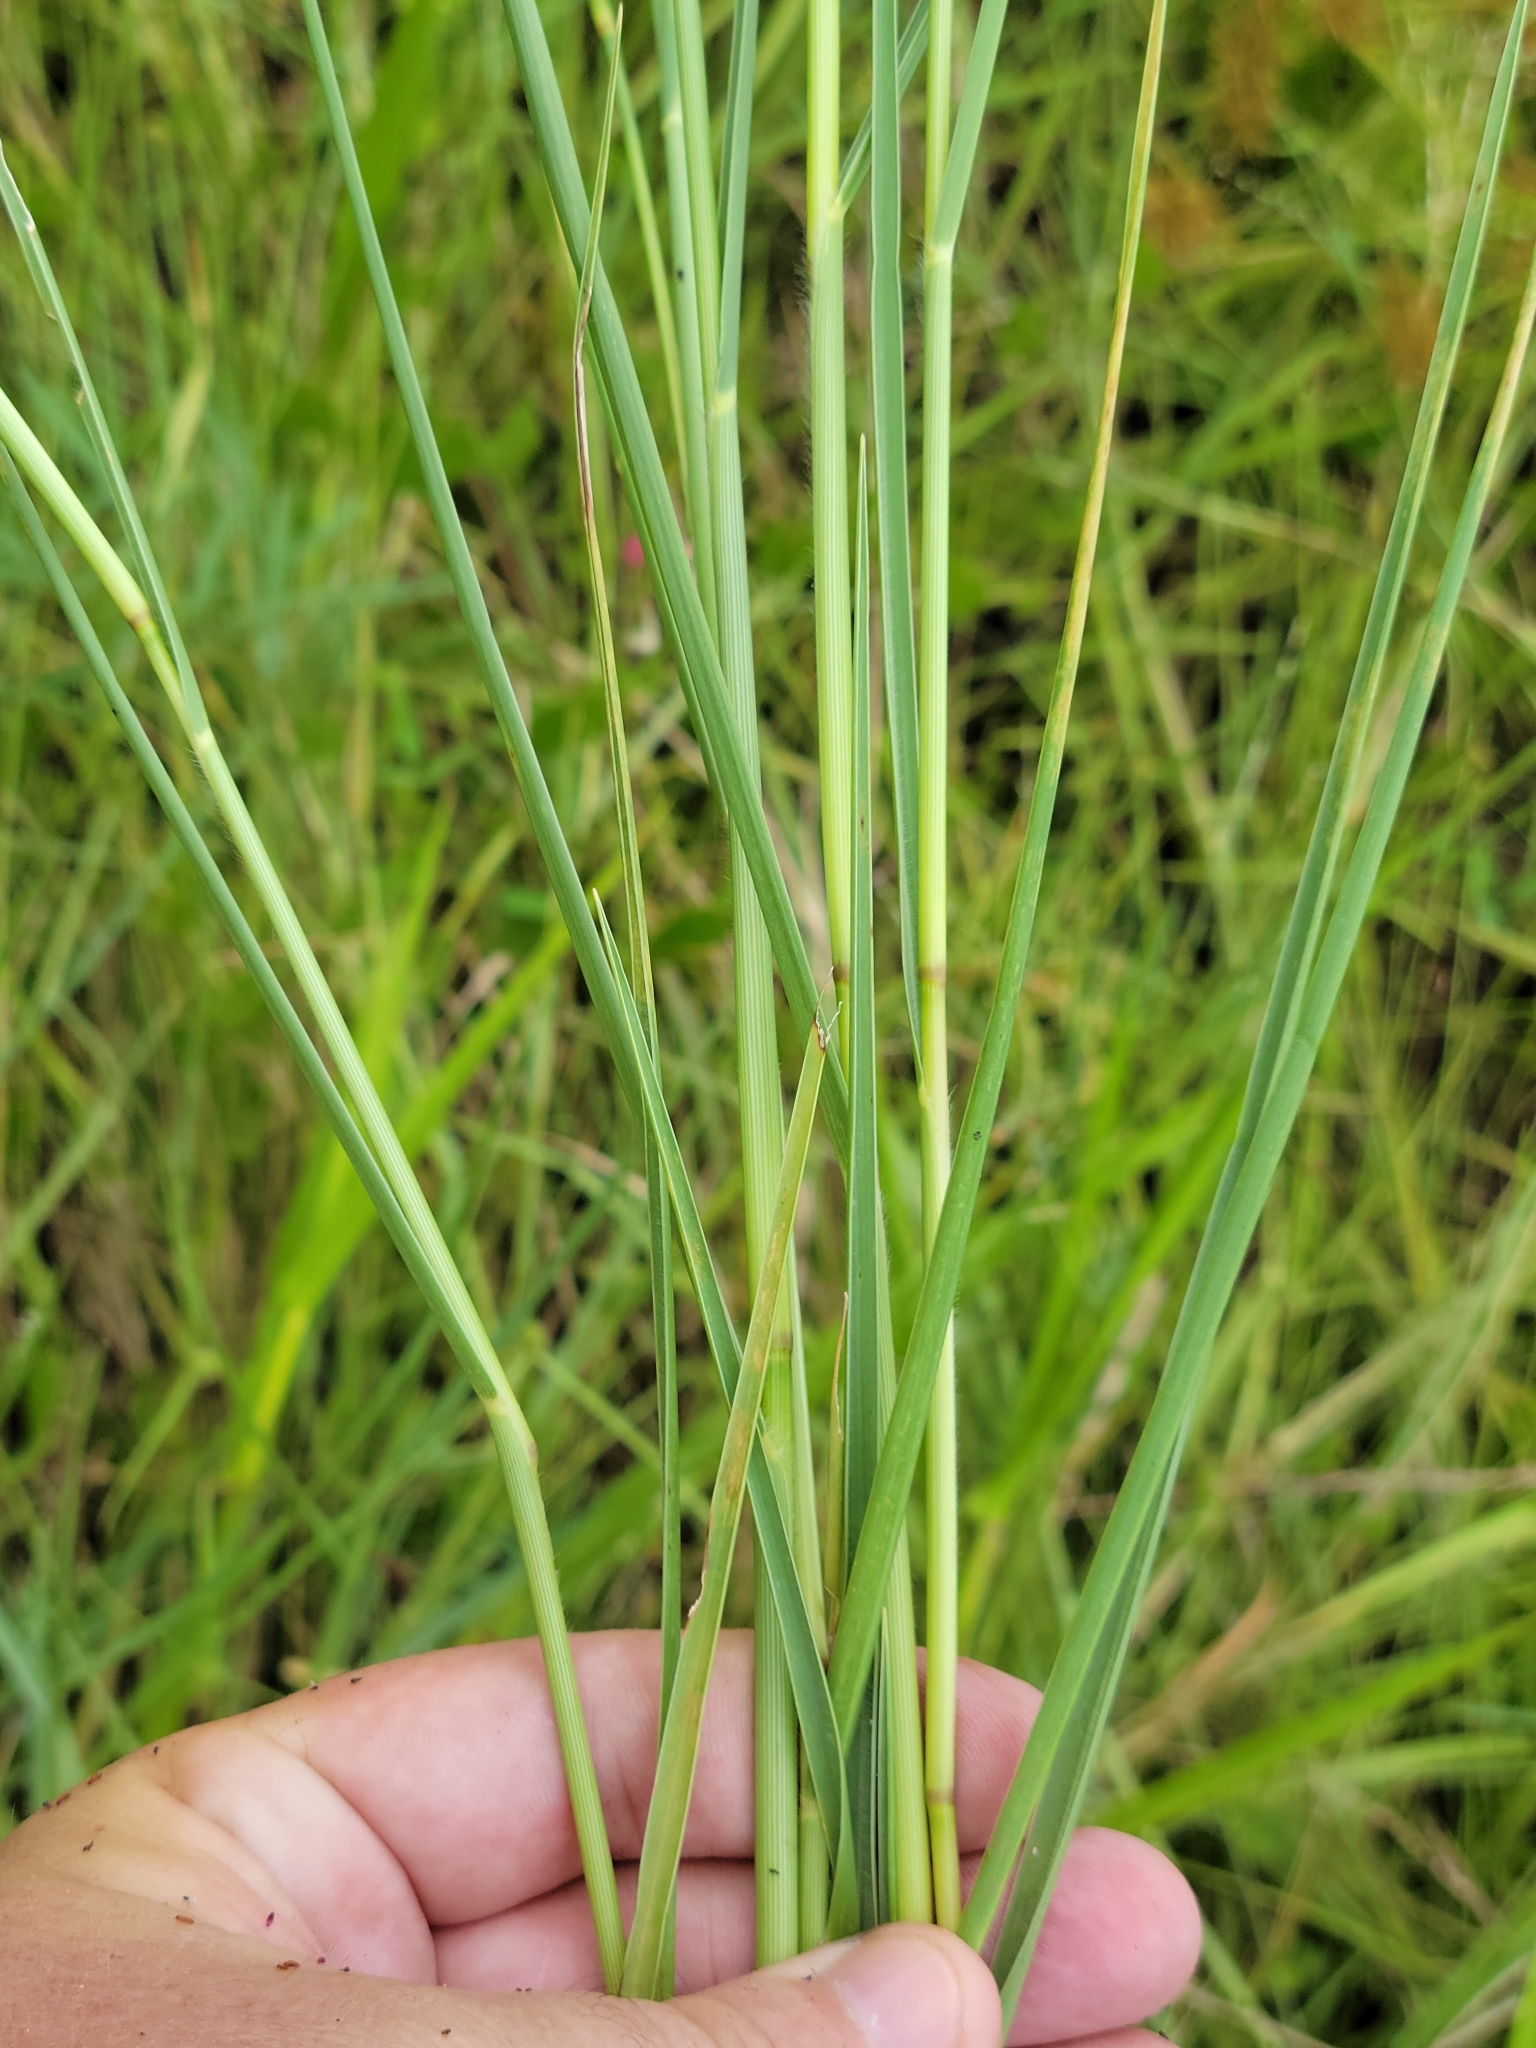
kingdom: Plantae
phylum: Tracheophyta
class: Liliopsida
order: Poales
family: Poaceae
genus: Panicum
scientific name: Panicum repens
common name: Torpedo grass
